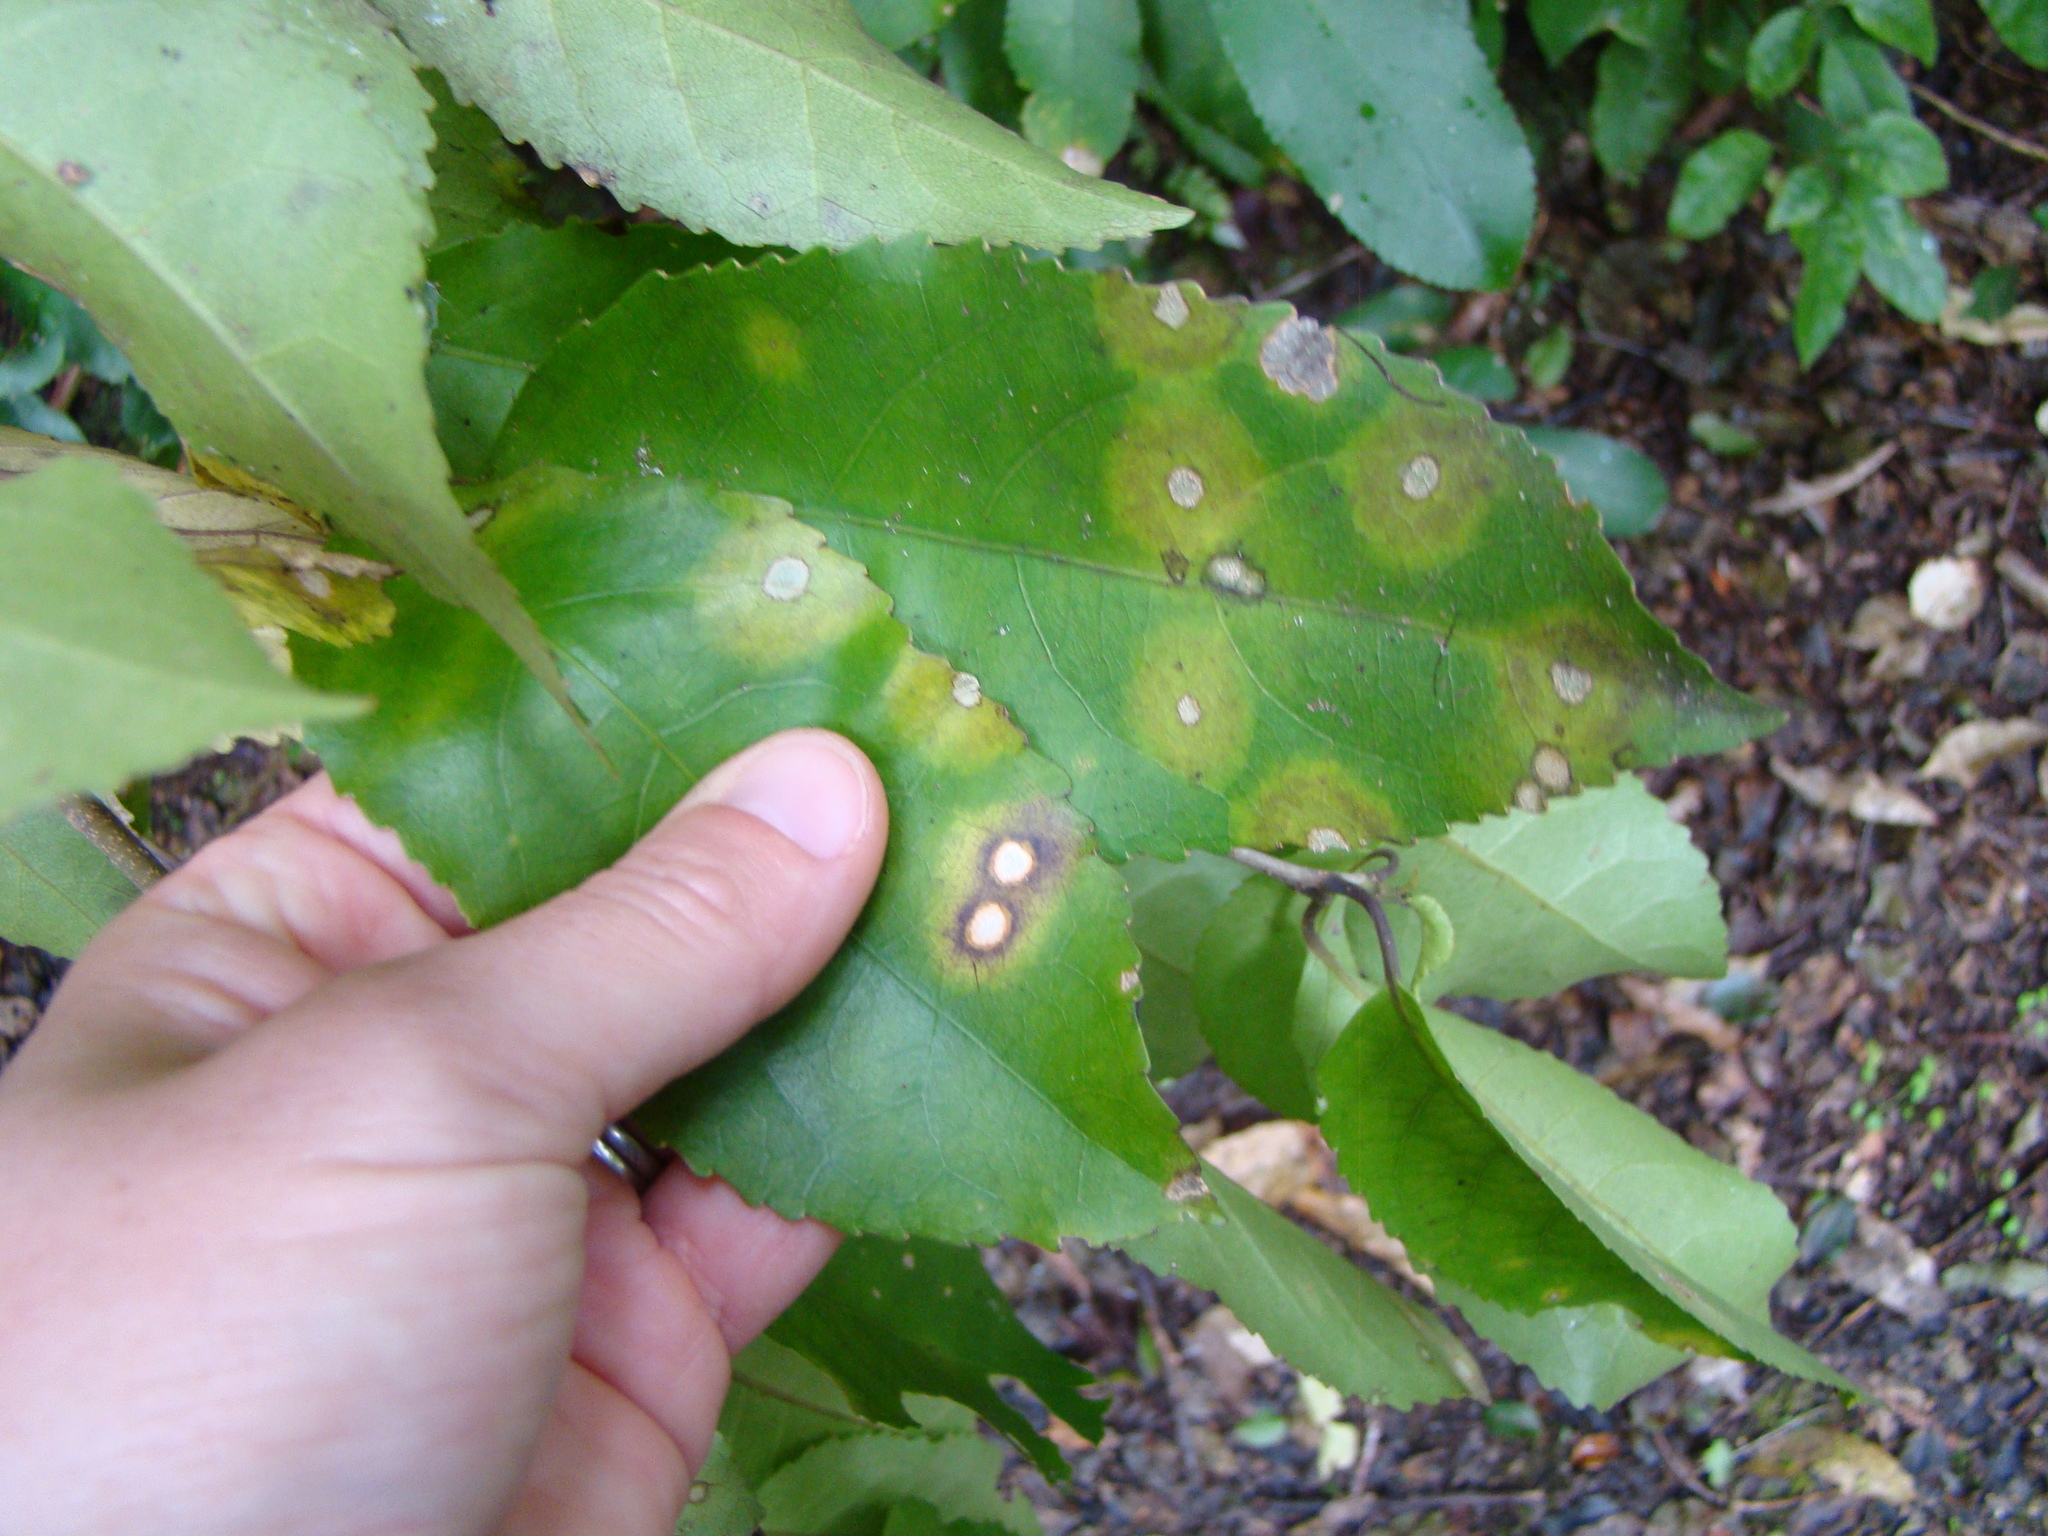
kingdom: Fungi
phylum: Ascomycota
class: Dothideomycetes
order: Botryosphaeriales
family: Planistromellaceae
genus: Diplochorella
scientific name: Diplochorella colensoi
